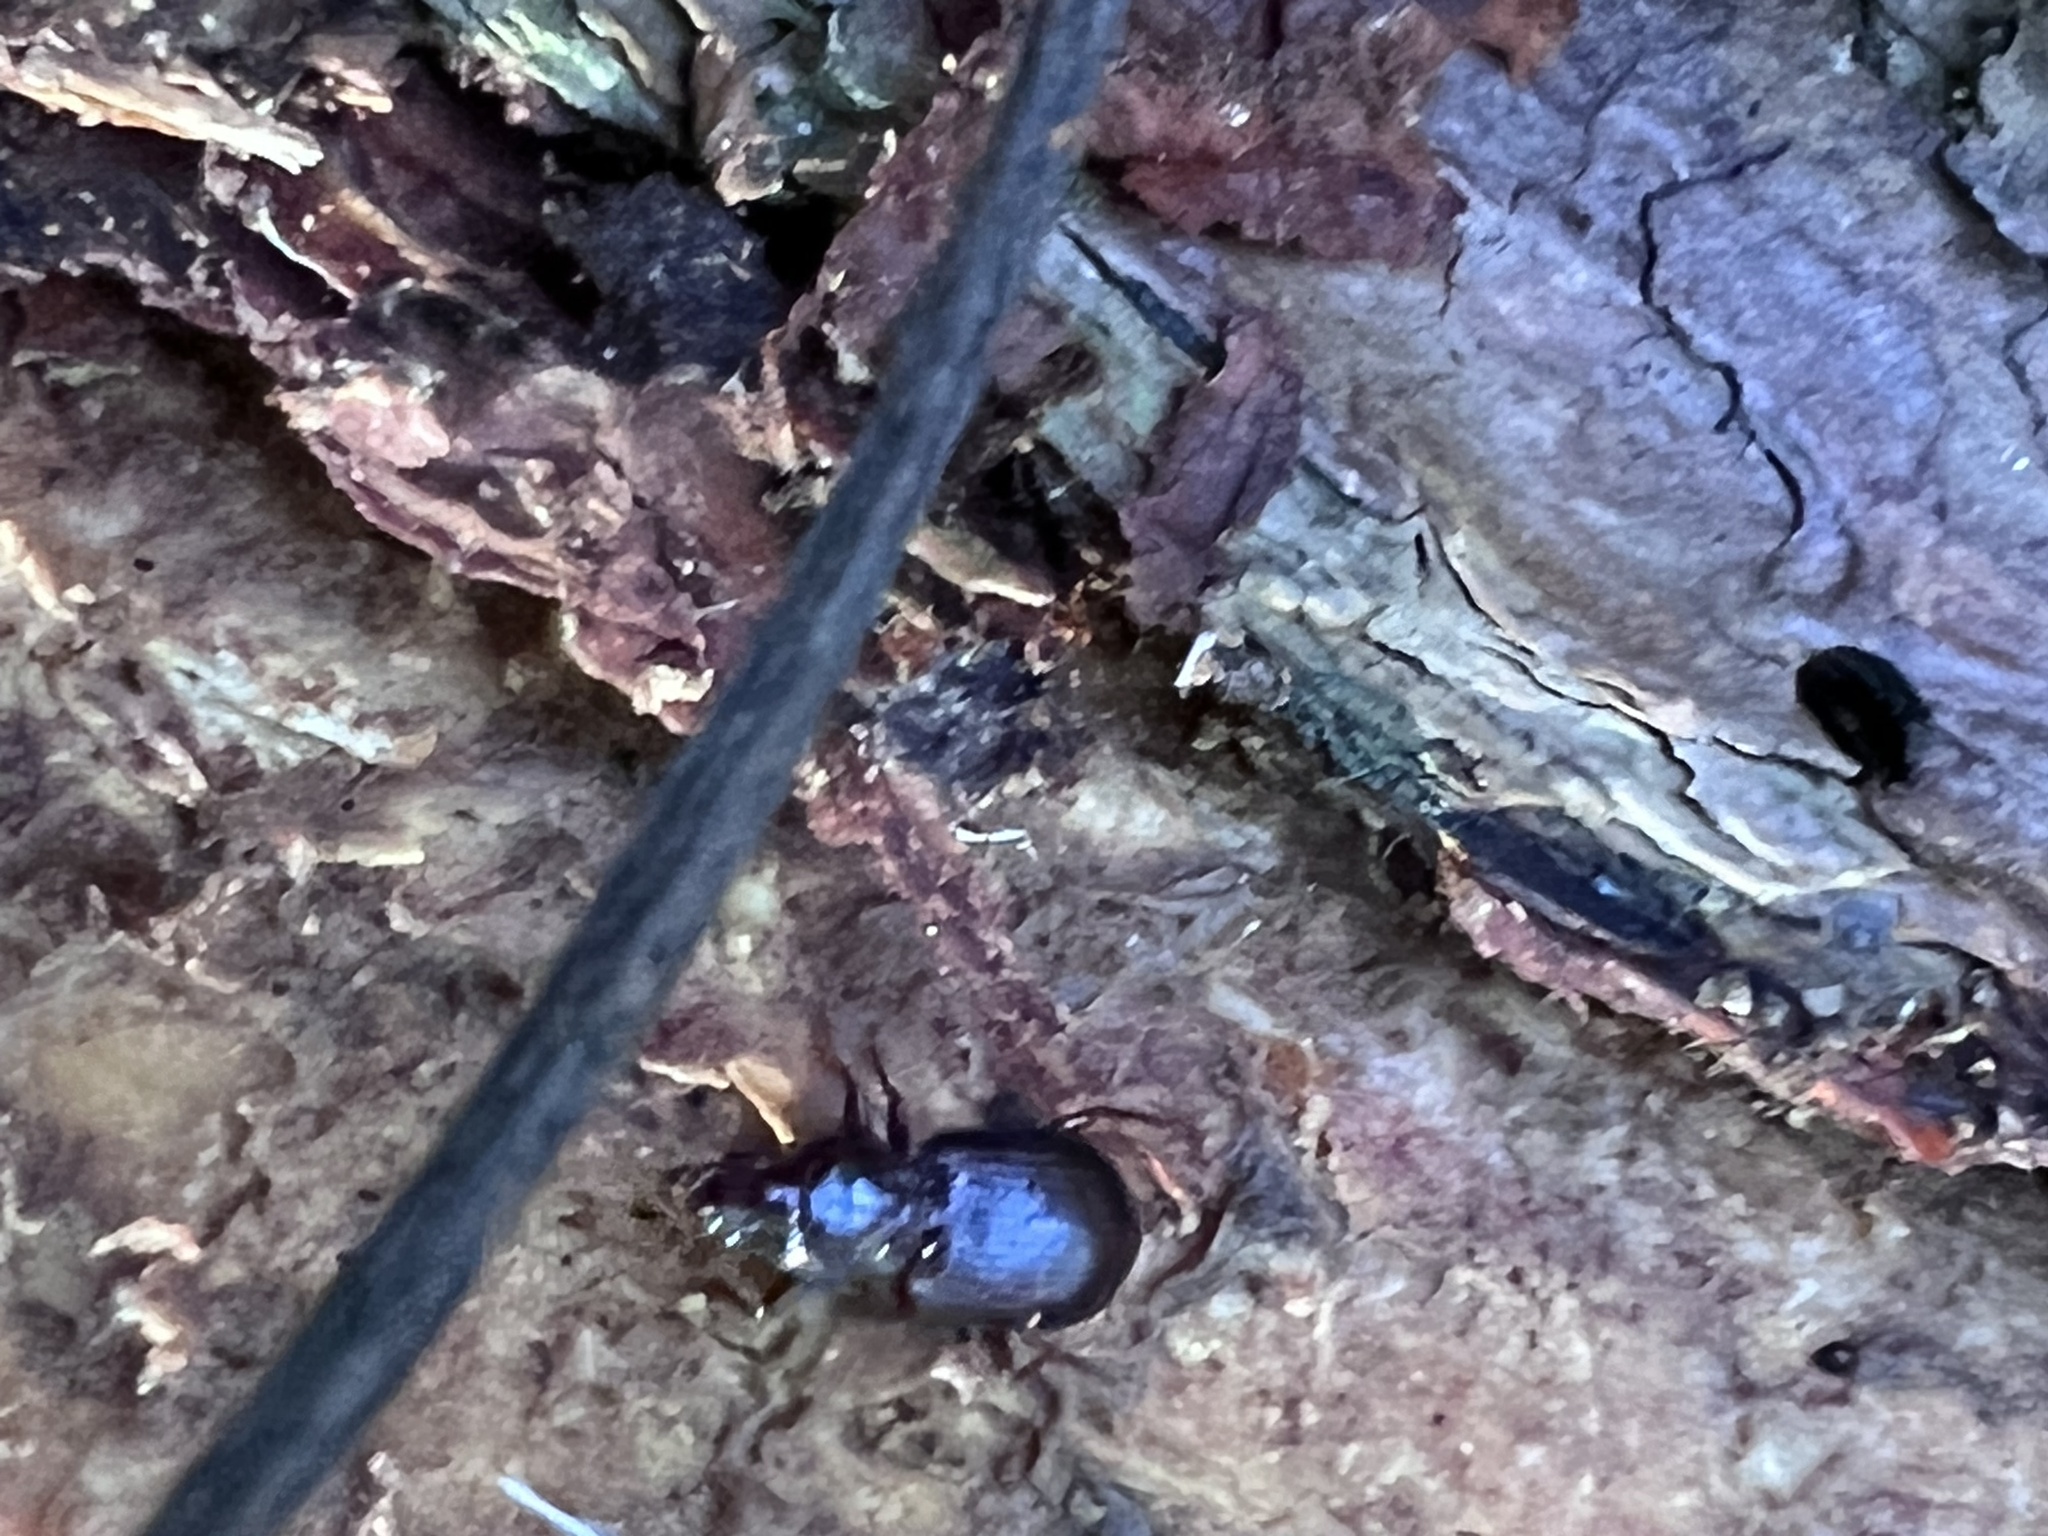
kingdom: Animalia
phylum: Arthropoda
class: Insecta
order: Coleoptera
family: Carabidae
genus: Gastrellarius
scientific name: Gastrellarius honestus
